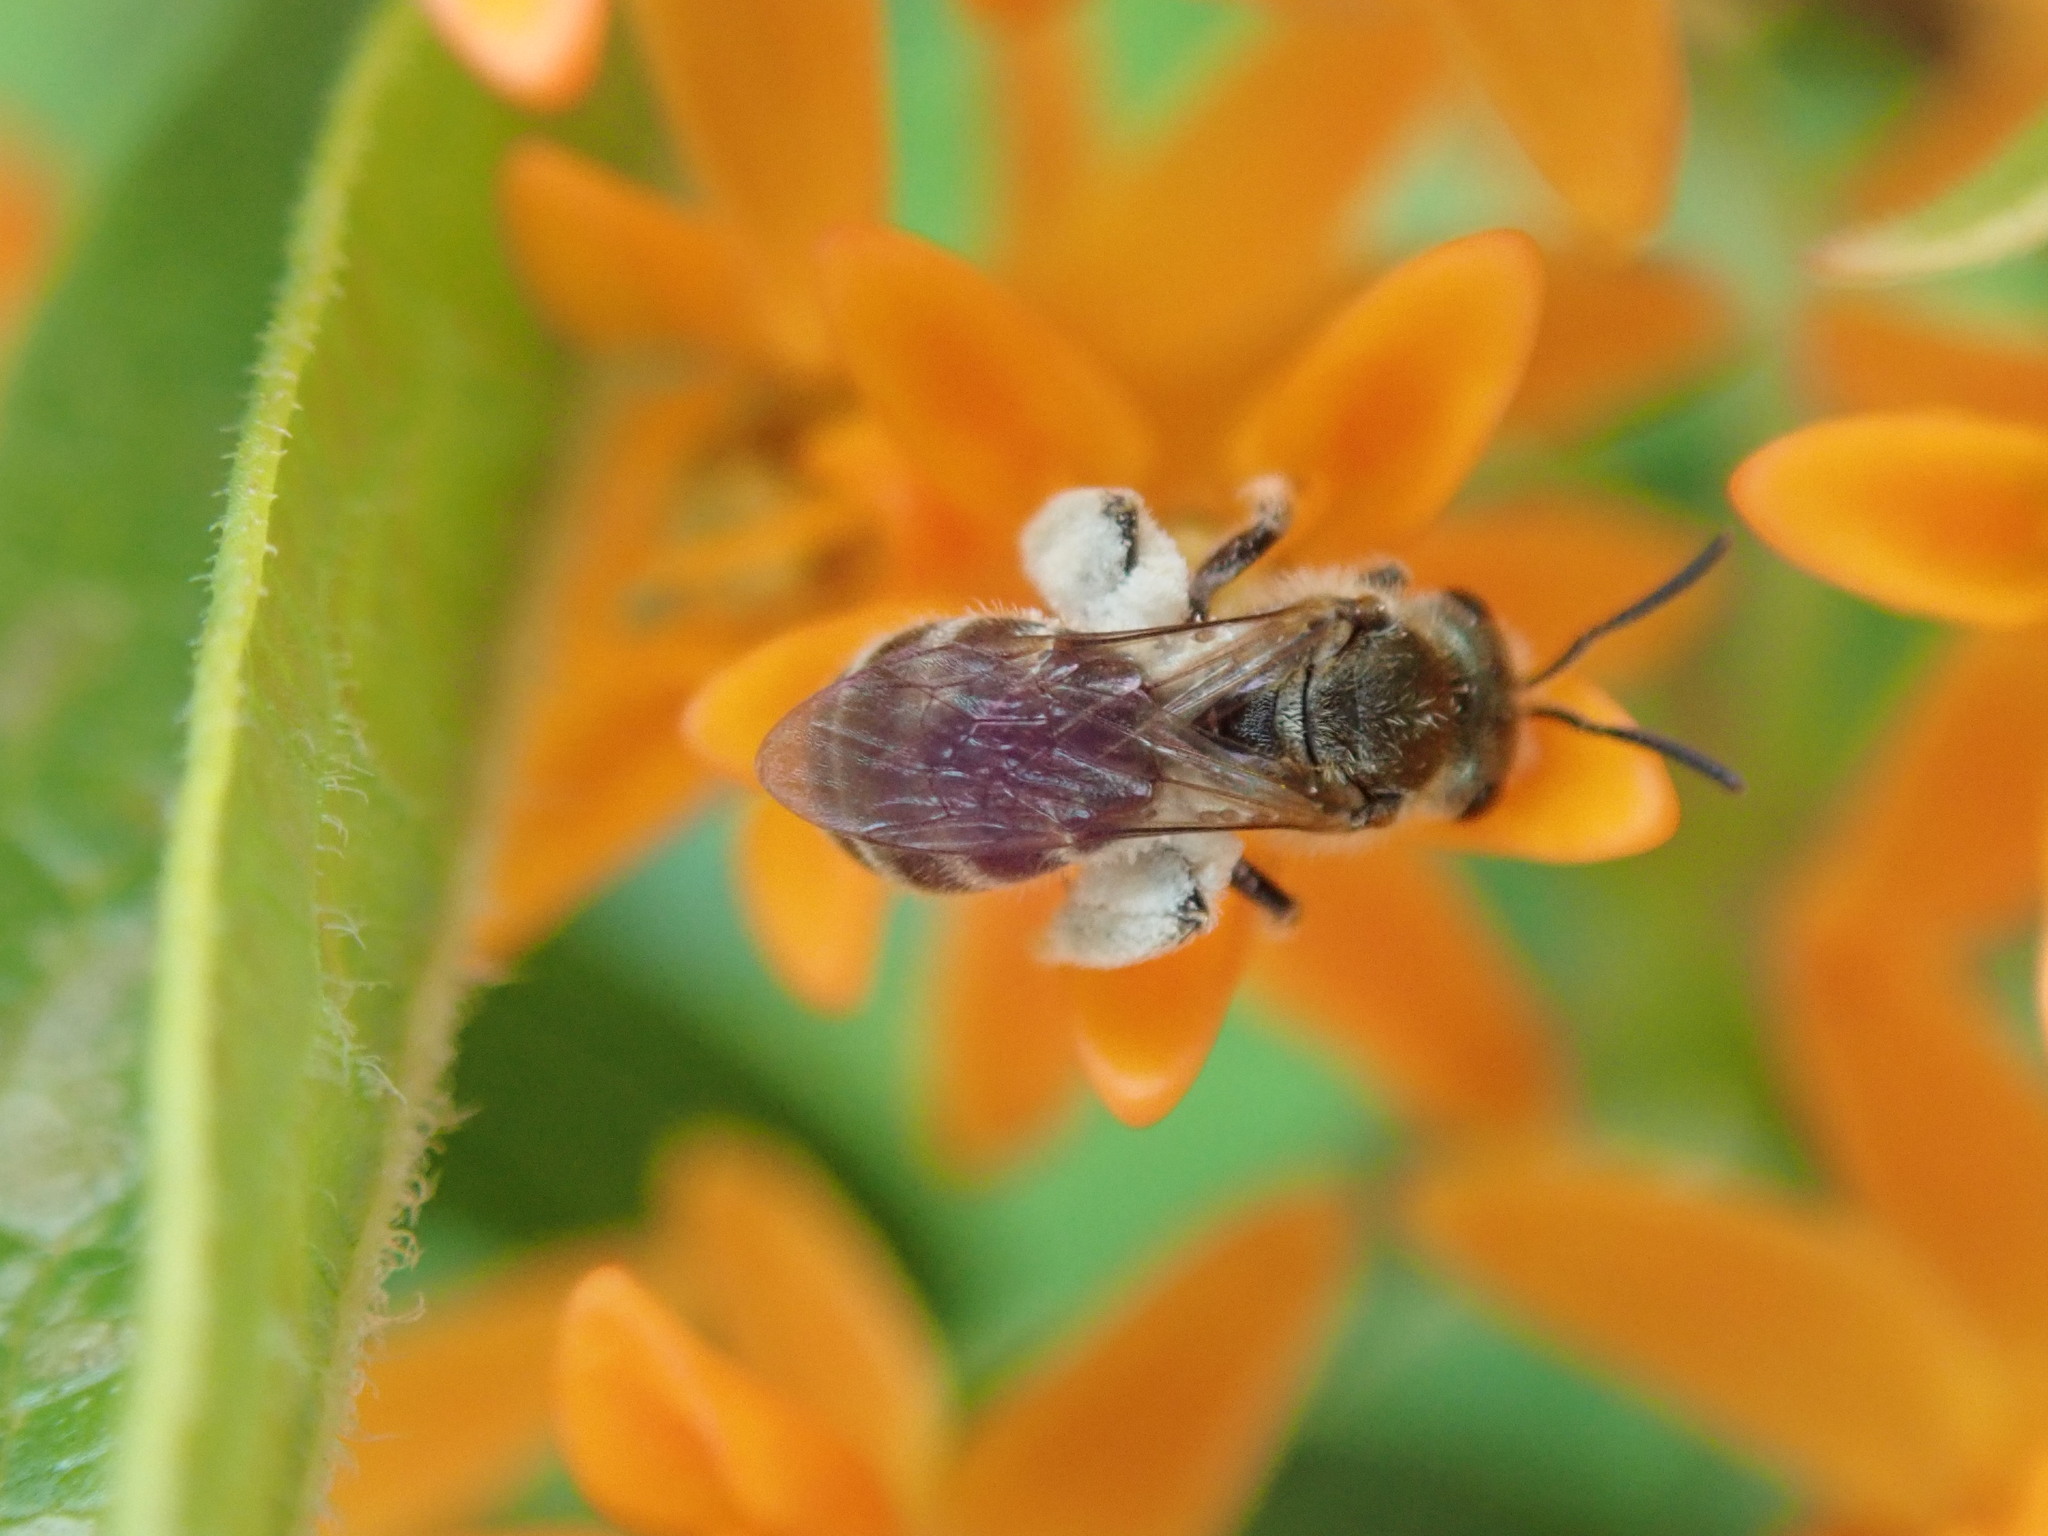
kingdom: Animalia
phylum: Arthropoda
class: Insecta
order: Hymenoptera
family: Halictidae
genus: Halictus
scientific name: Halictus confusus
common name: Southern bronze furrow bee
